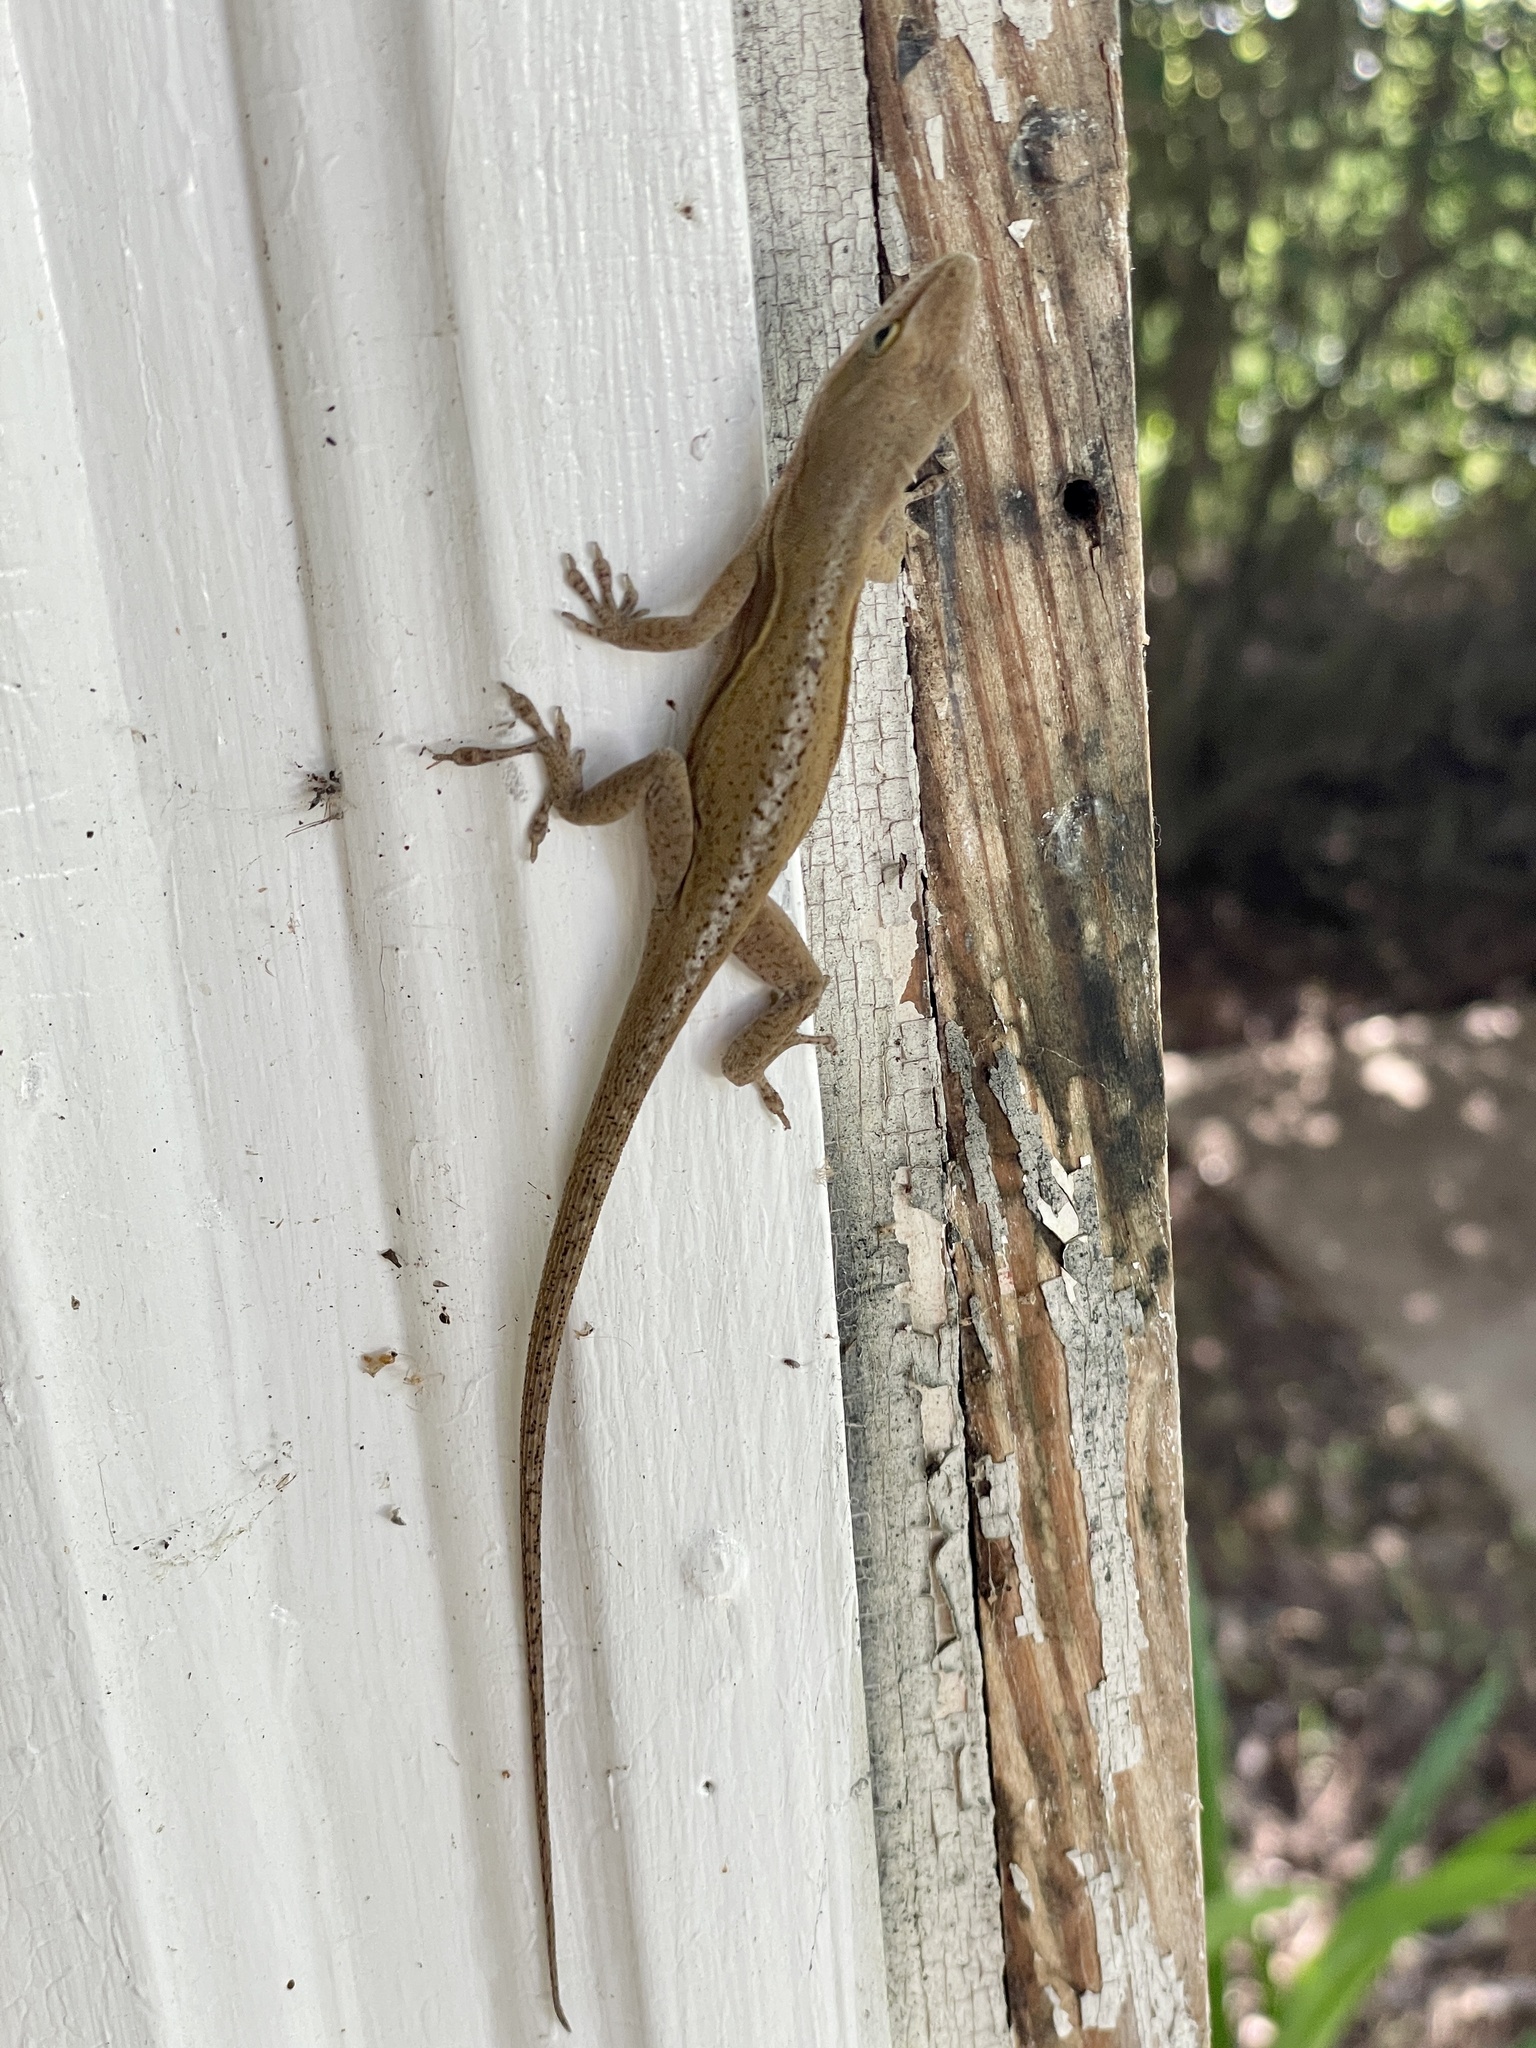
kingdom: Animalia
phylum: Chordata
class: Squamata
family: Dactyloidae
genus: Anolis
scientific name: Anolis carolinensis
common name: Green anole
